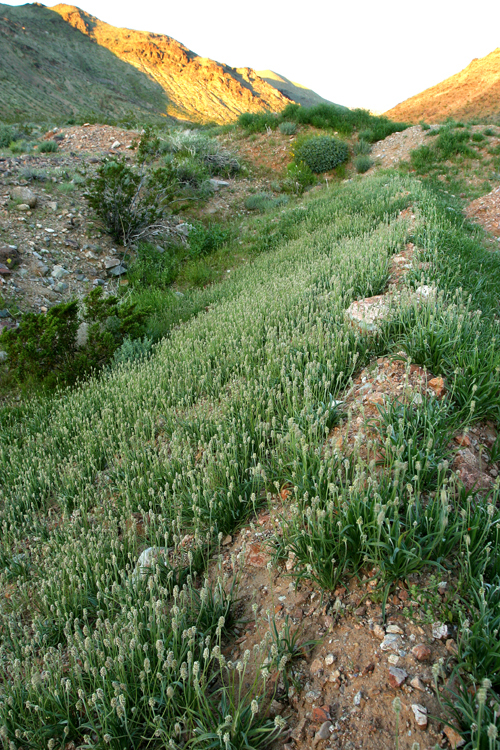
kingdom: Plantae
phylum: Tracheophyta
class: Magnoliopsida
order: Lamiales
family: Plantaginaceae
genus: Plantago
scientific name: Plantago ovata
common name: Blond plantain
